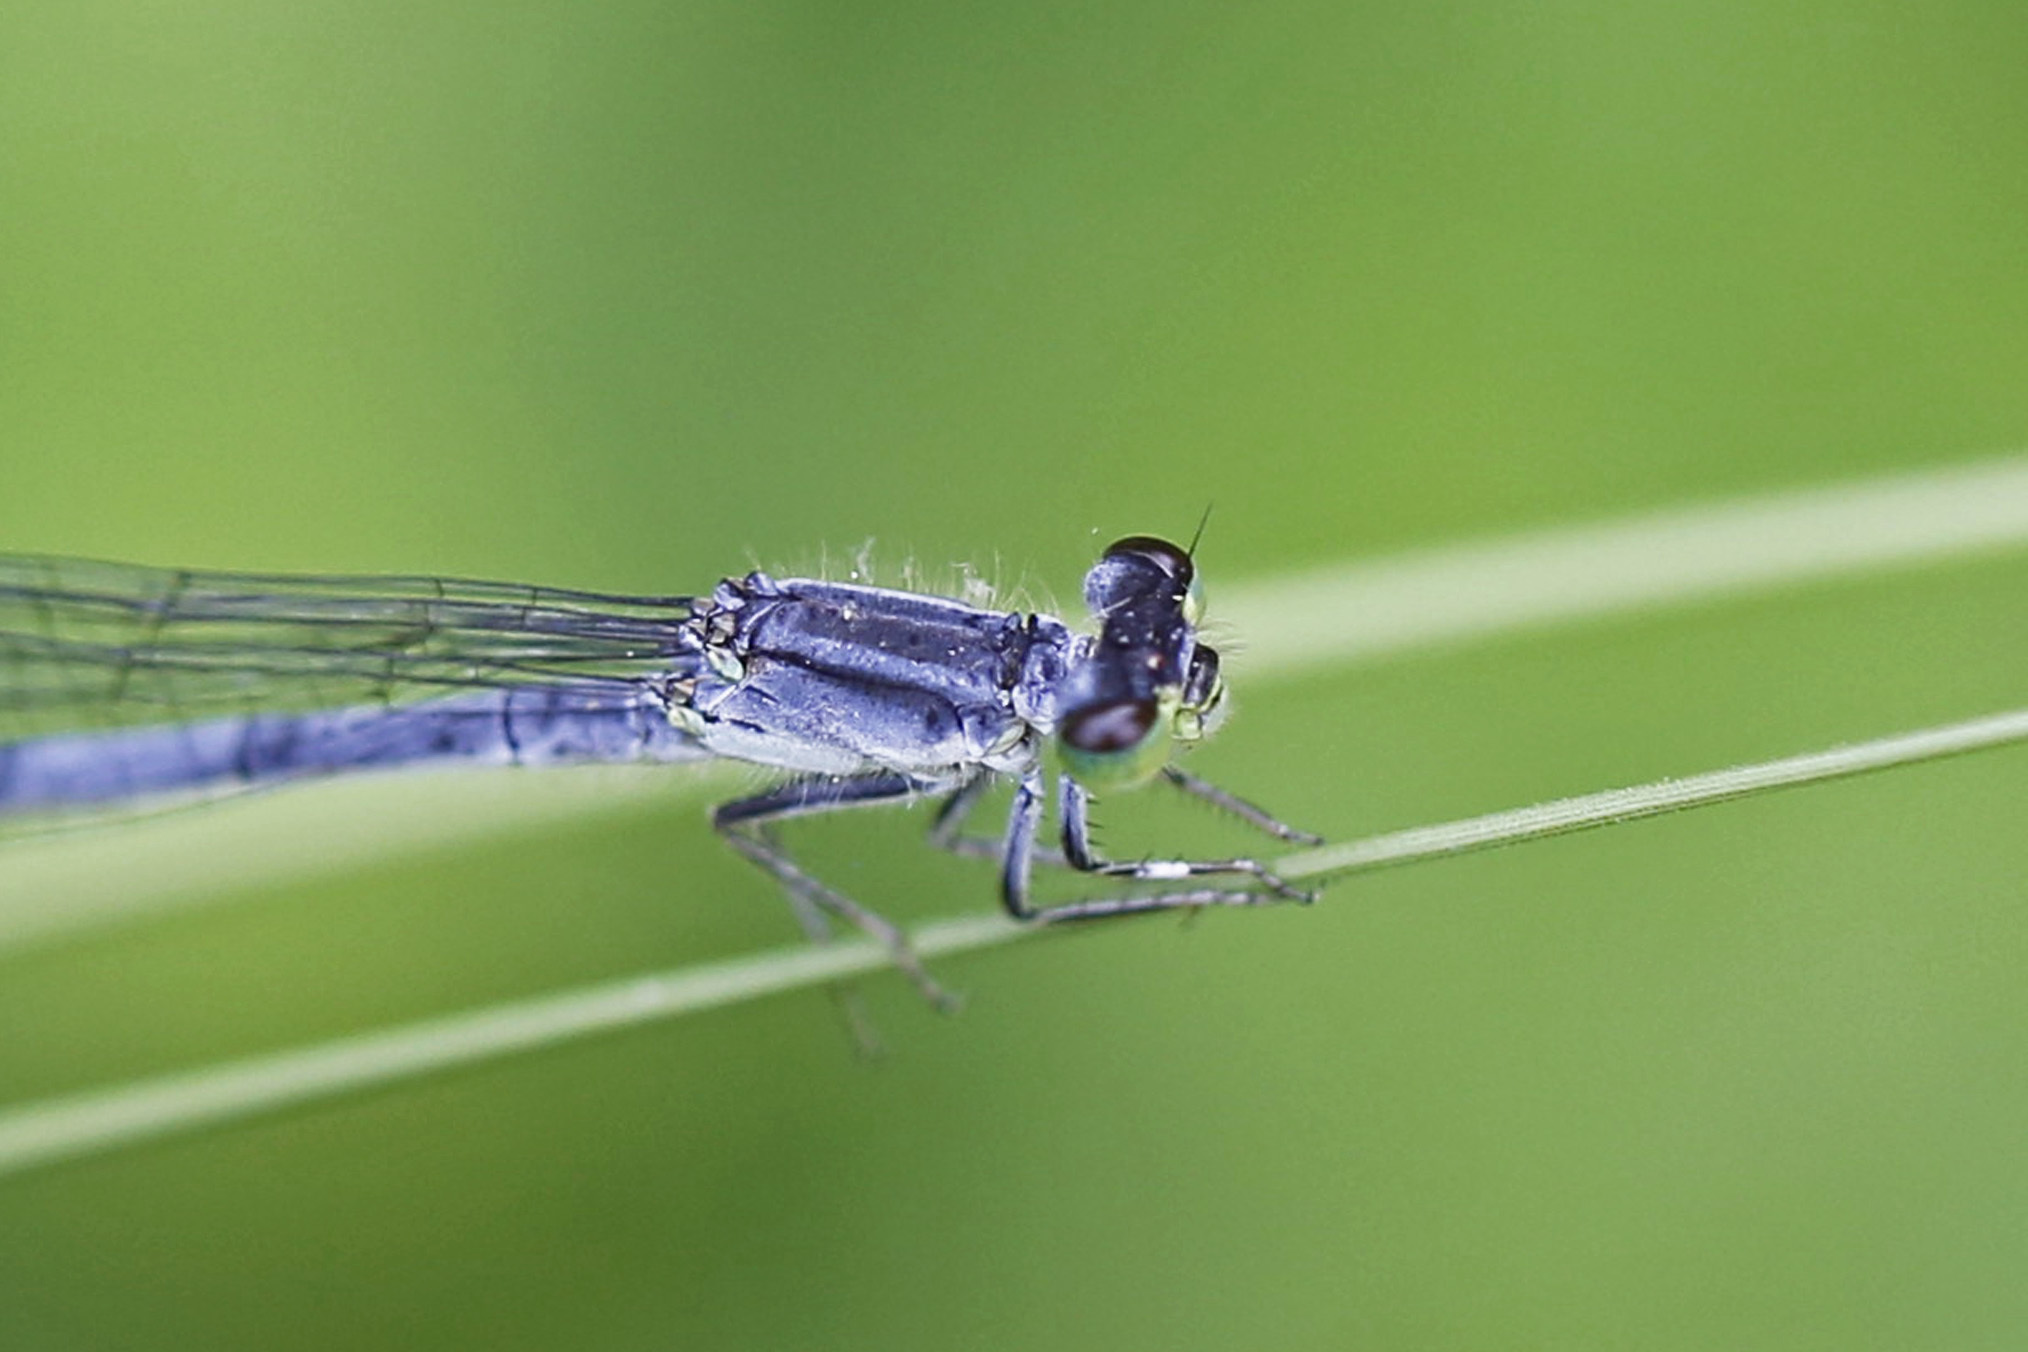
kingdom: Animalia
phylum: Arthropoda
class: Insecta
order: Odonata
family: Coenagrionidae
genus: Ischnura
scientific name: Ischnura verticalis
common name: Eastern forktail
